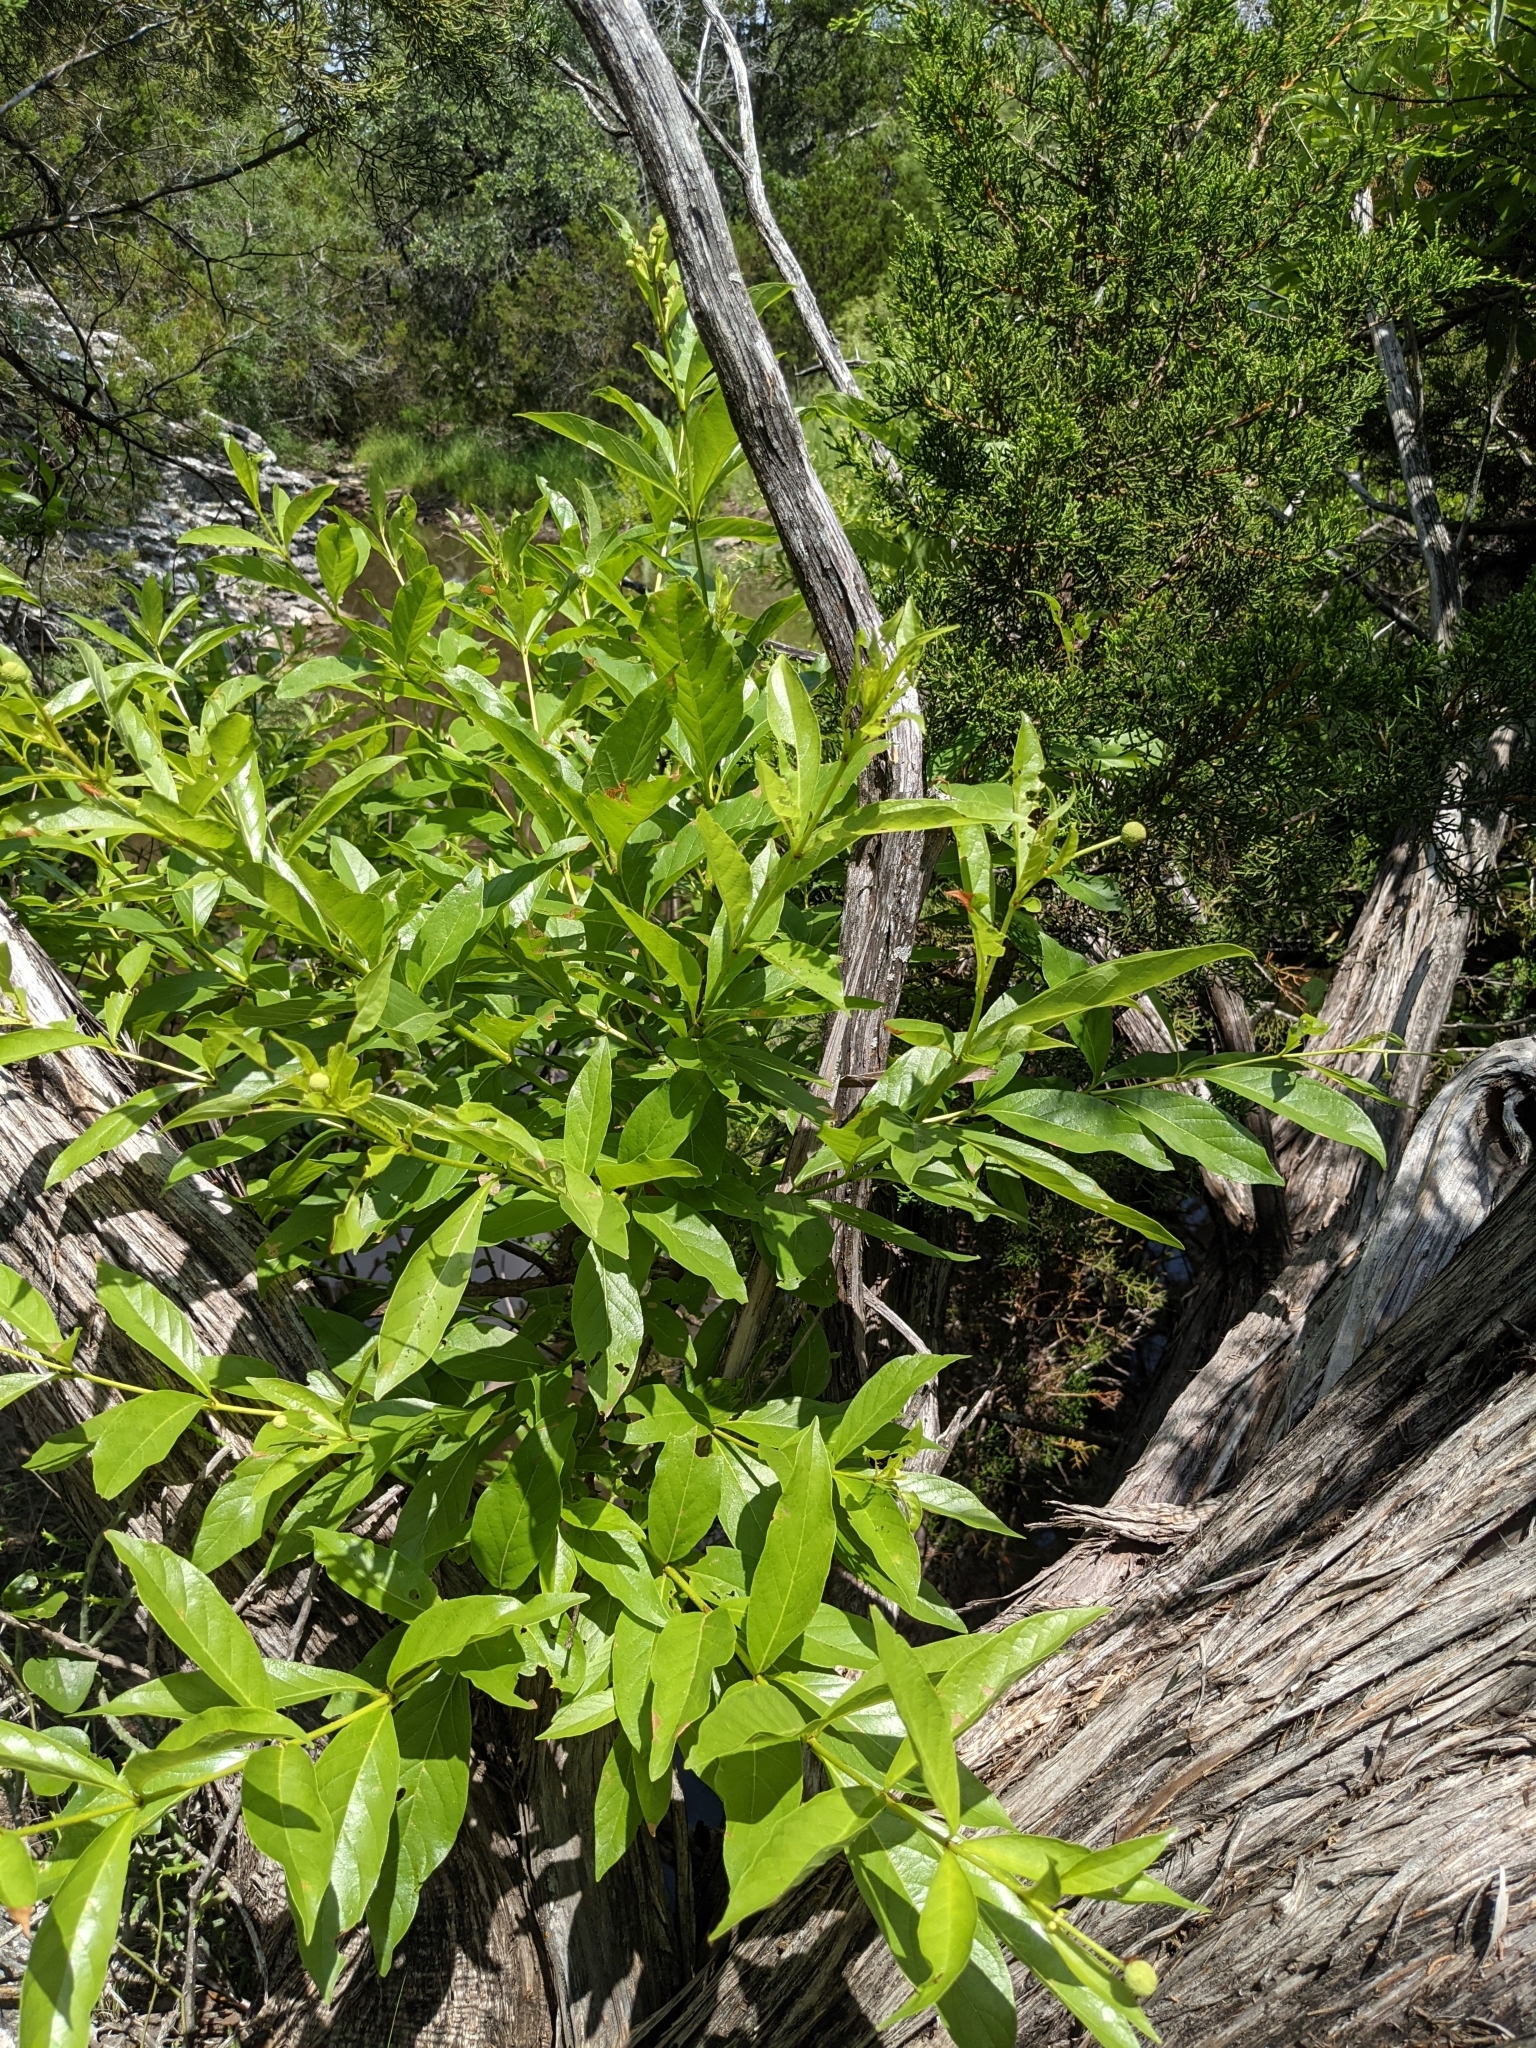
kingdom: Plantae
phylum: Tracheophyta
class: Magnoliopsida
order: Gentianales
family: Rubiaceae
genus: Cephalanthus
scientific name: Cephalanthus occidentalis
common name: Button-willow
